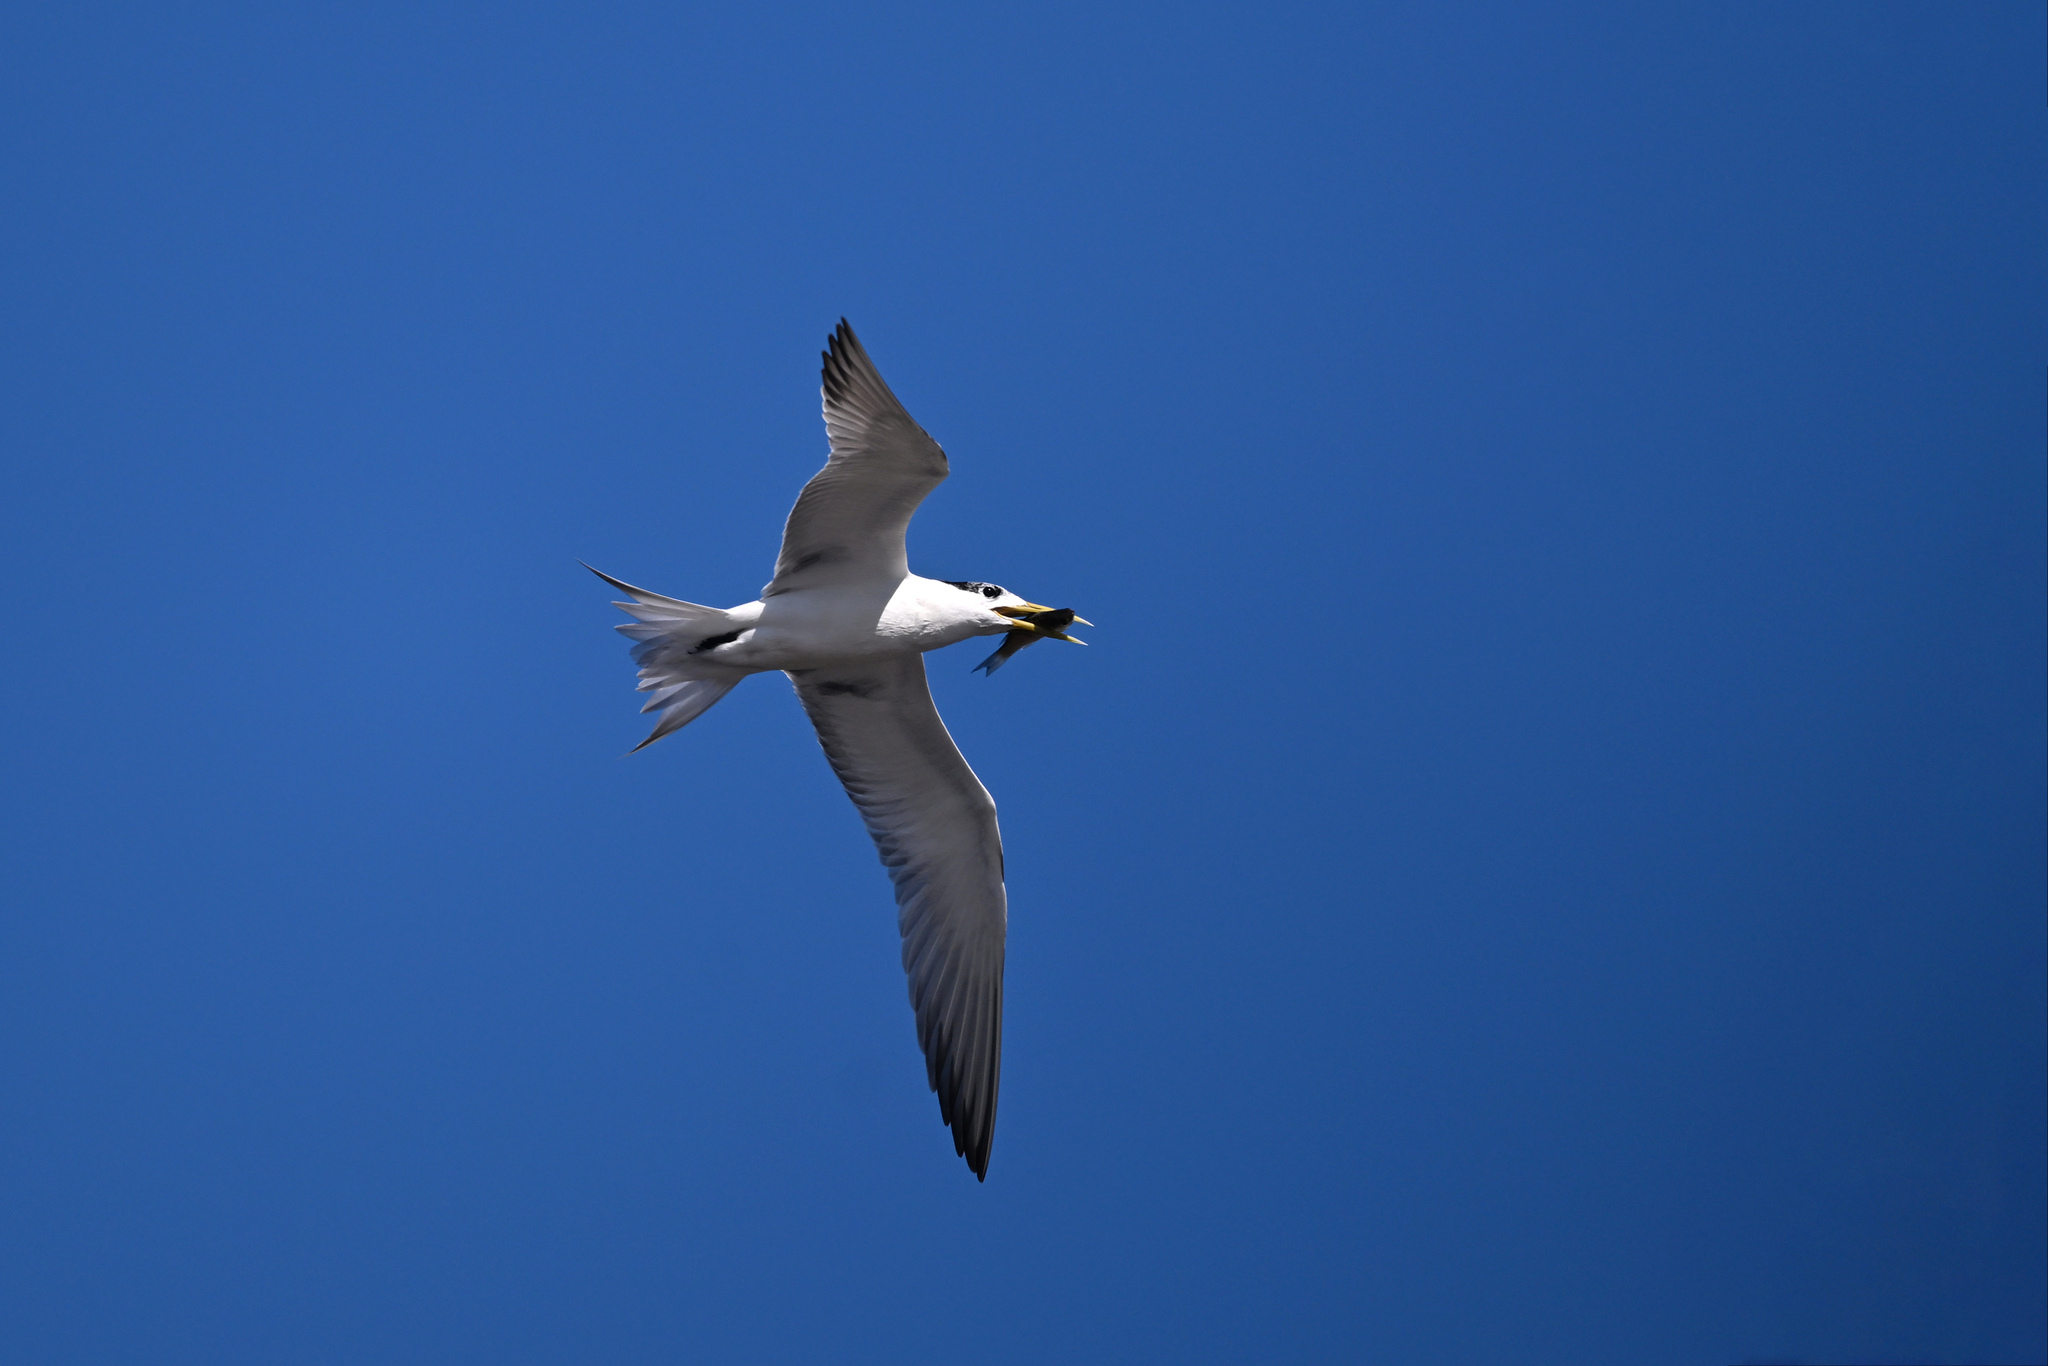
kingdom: Animalia
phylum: Chordata
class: Aves
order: Charadriiformes
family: Laridae
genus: Thalasseus
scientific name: Thalasseus bergii
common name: Greater crested tern
